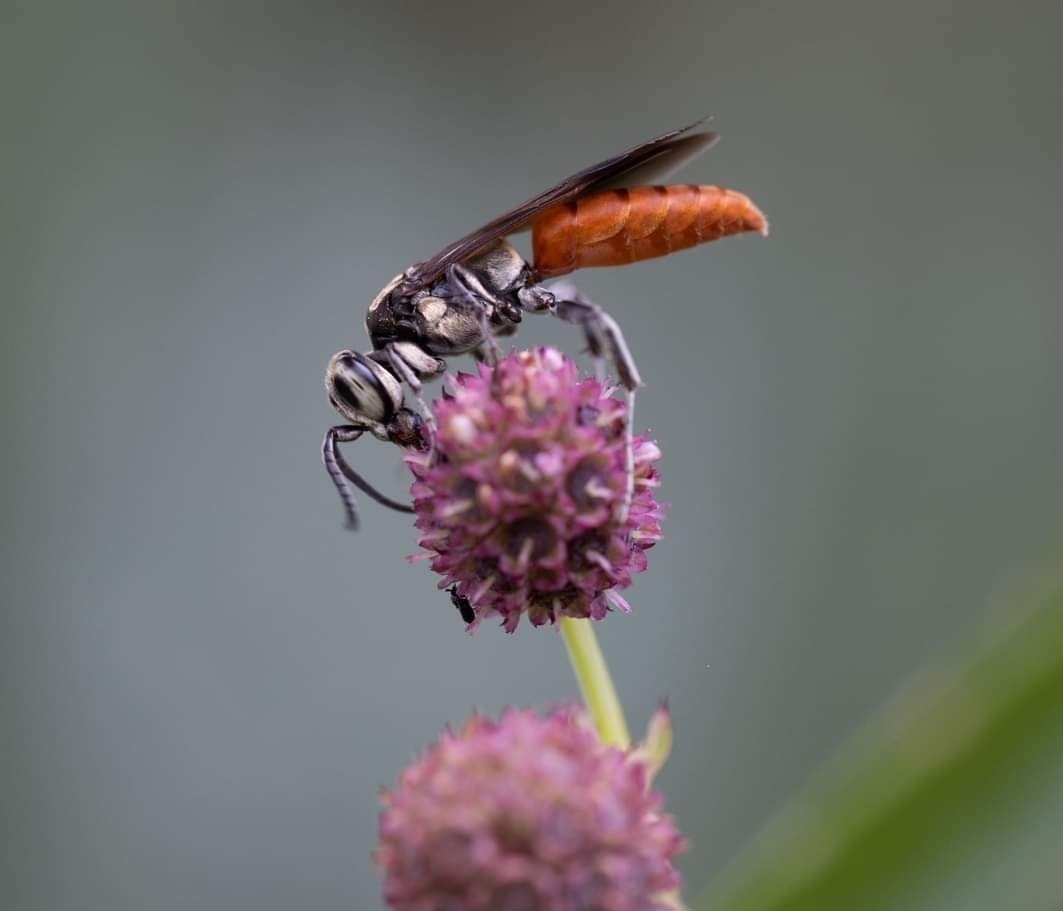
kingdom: Animalia
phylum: Arthropoda
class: Insecta
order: Hymenoptera
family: Crabronidae
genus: Larra
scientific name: Larra bicolor
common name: Wasp
